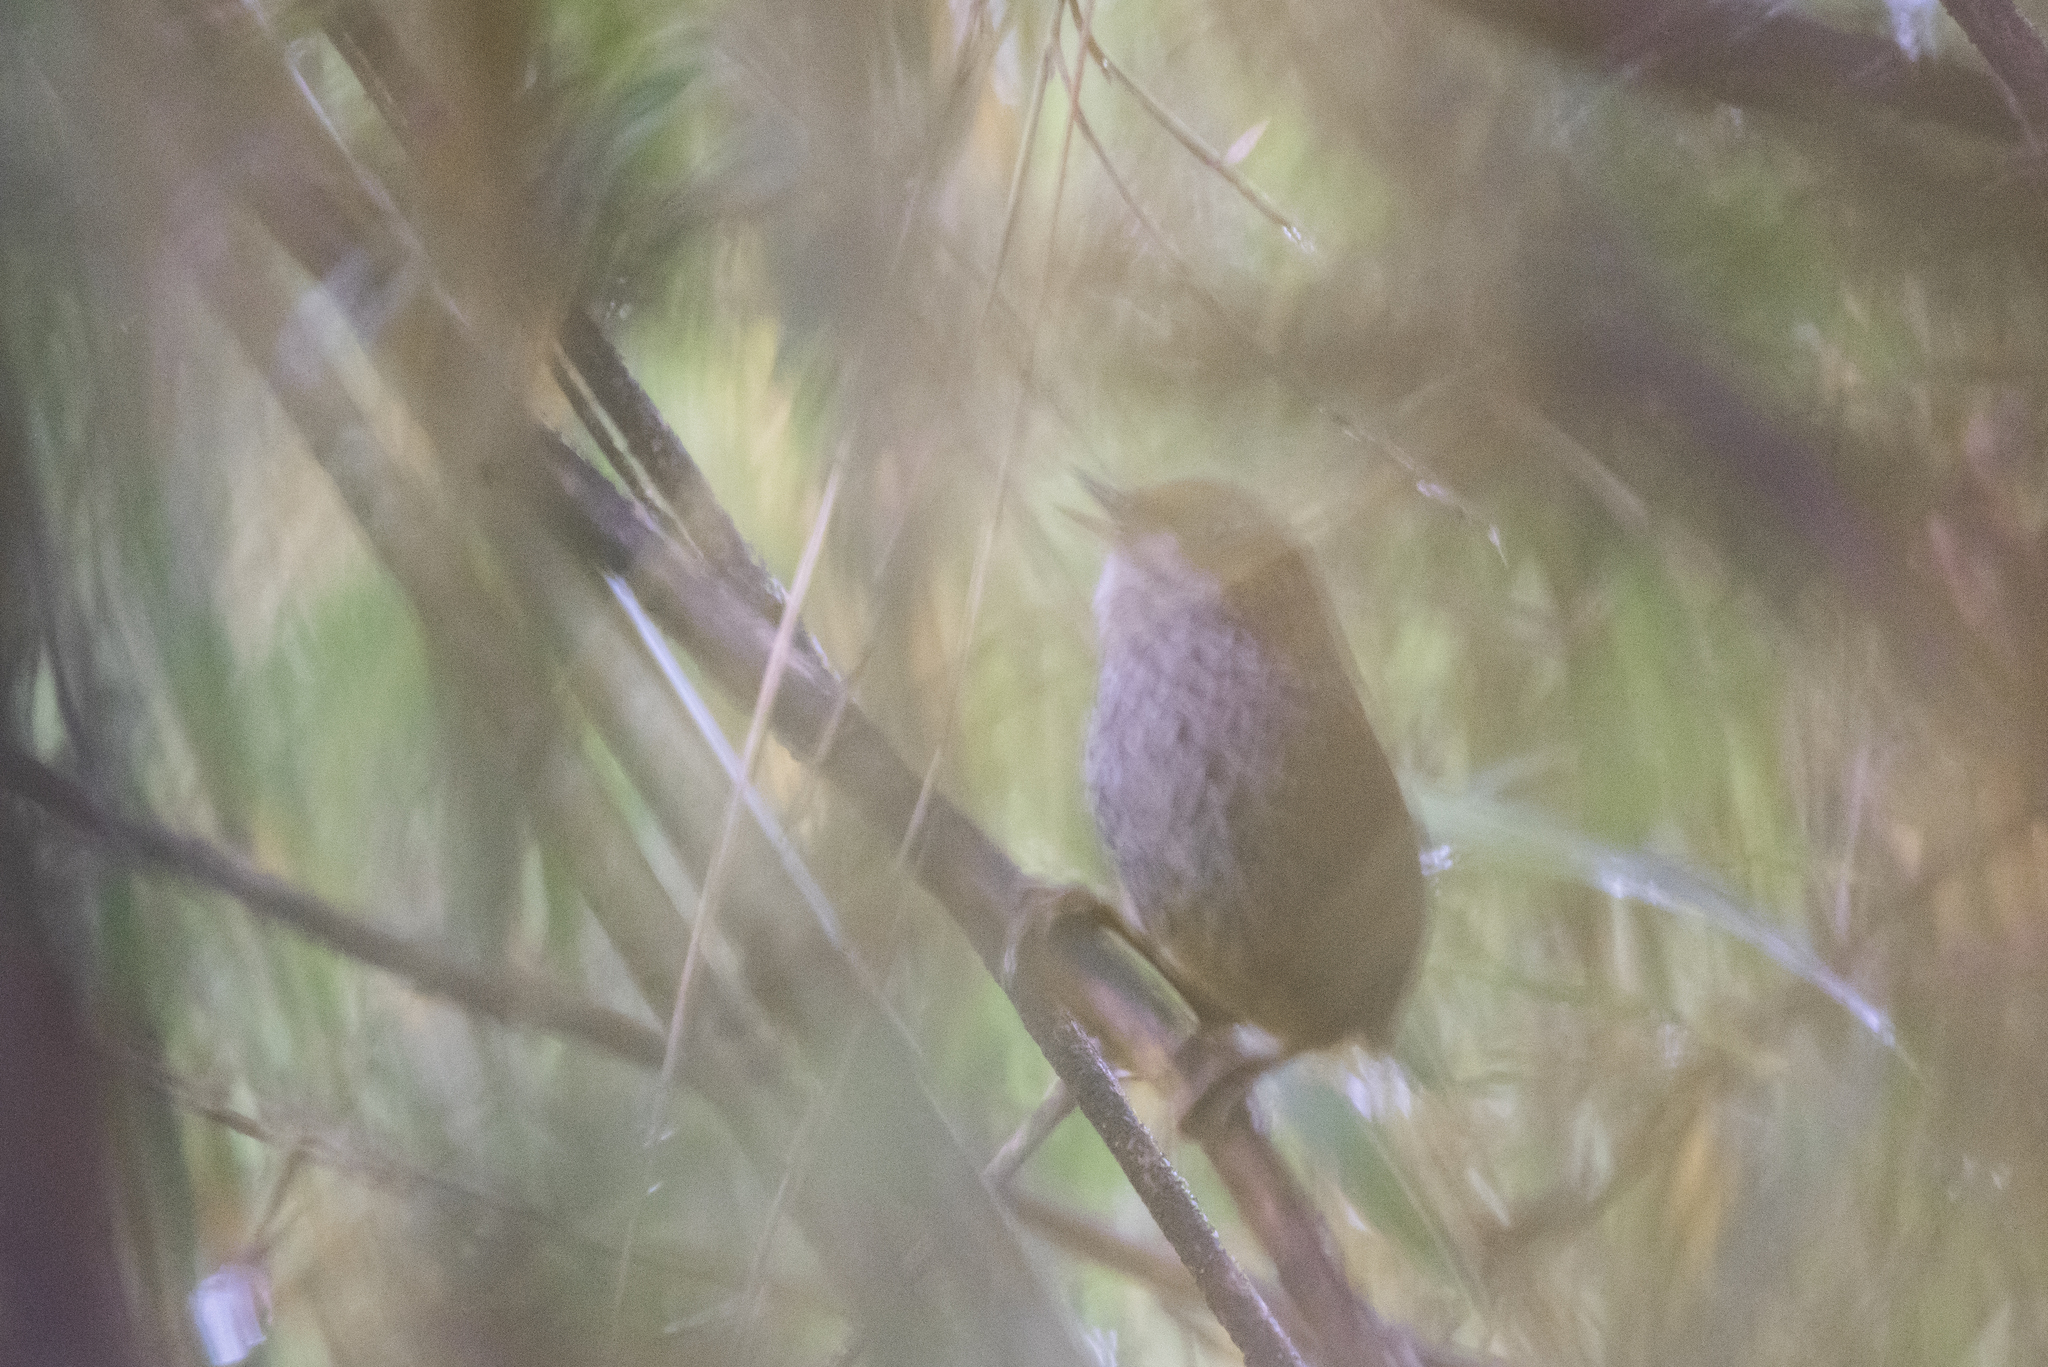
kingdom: Animalia
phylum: Chordata
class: Aves
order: Passeriformes
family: Pnoepygidae
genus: Pnoepyga
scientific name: Pnoepyga formosana
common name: Taiwan cupwing
